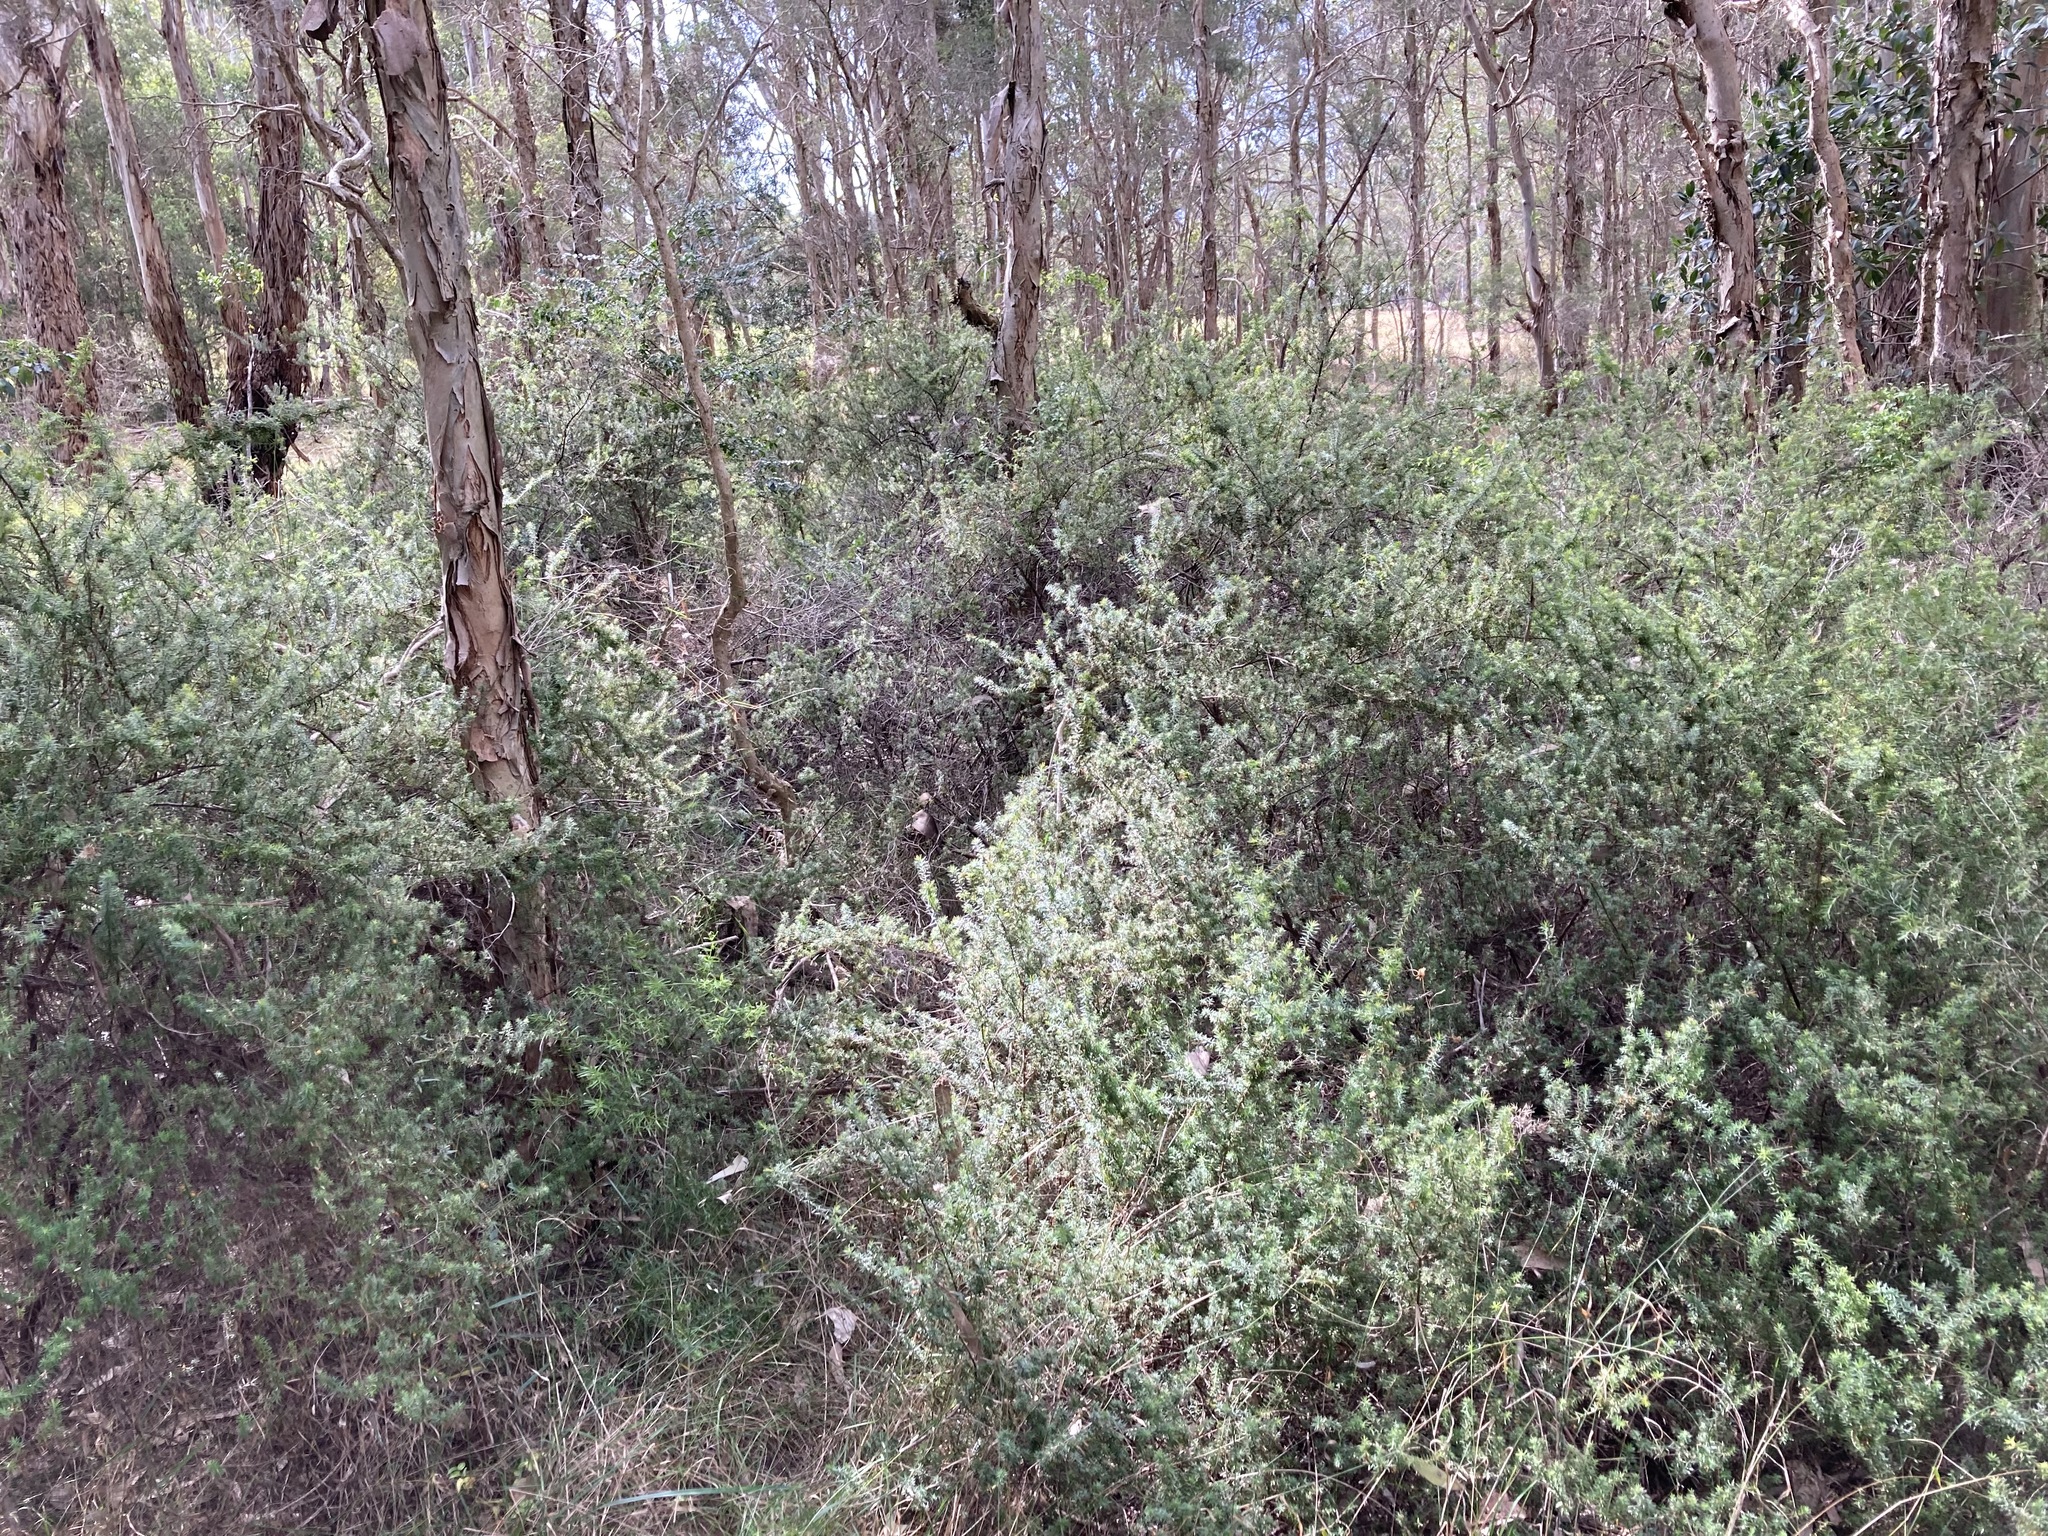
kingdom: Plantae
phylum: Tracheophyta
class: Magnoliopsida
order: Ericales
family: Ericaceae
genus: Styphelia
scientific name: Styphelia sieberi
